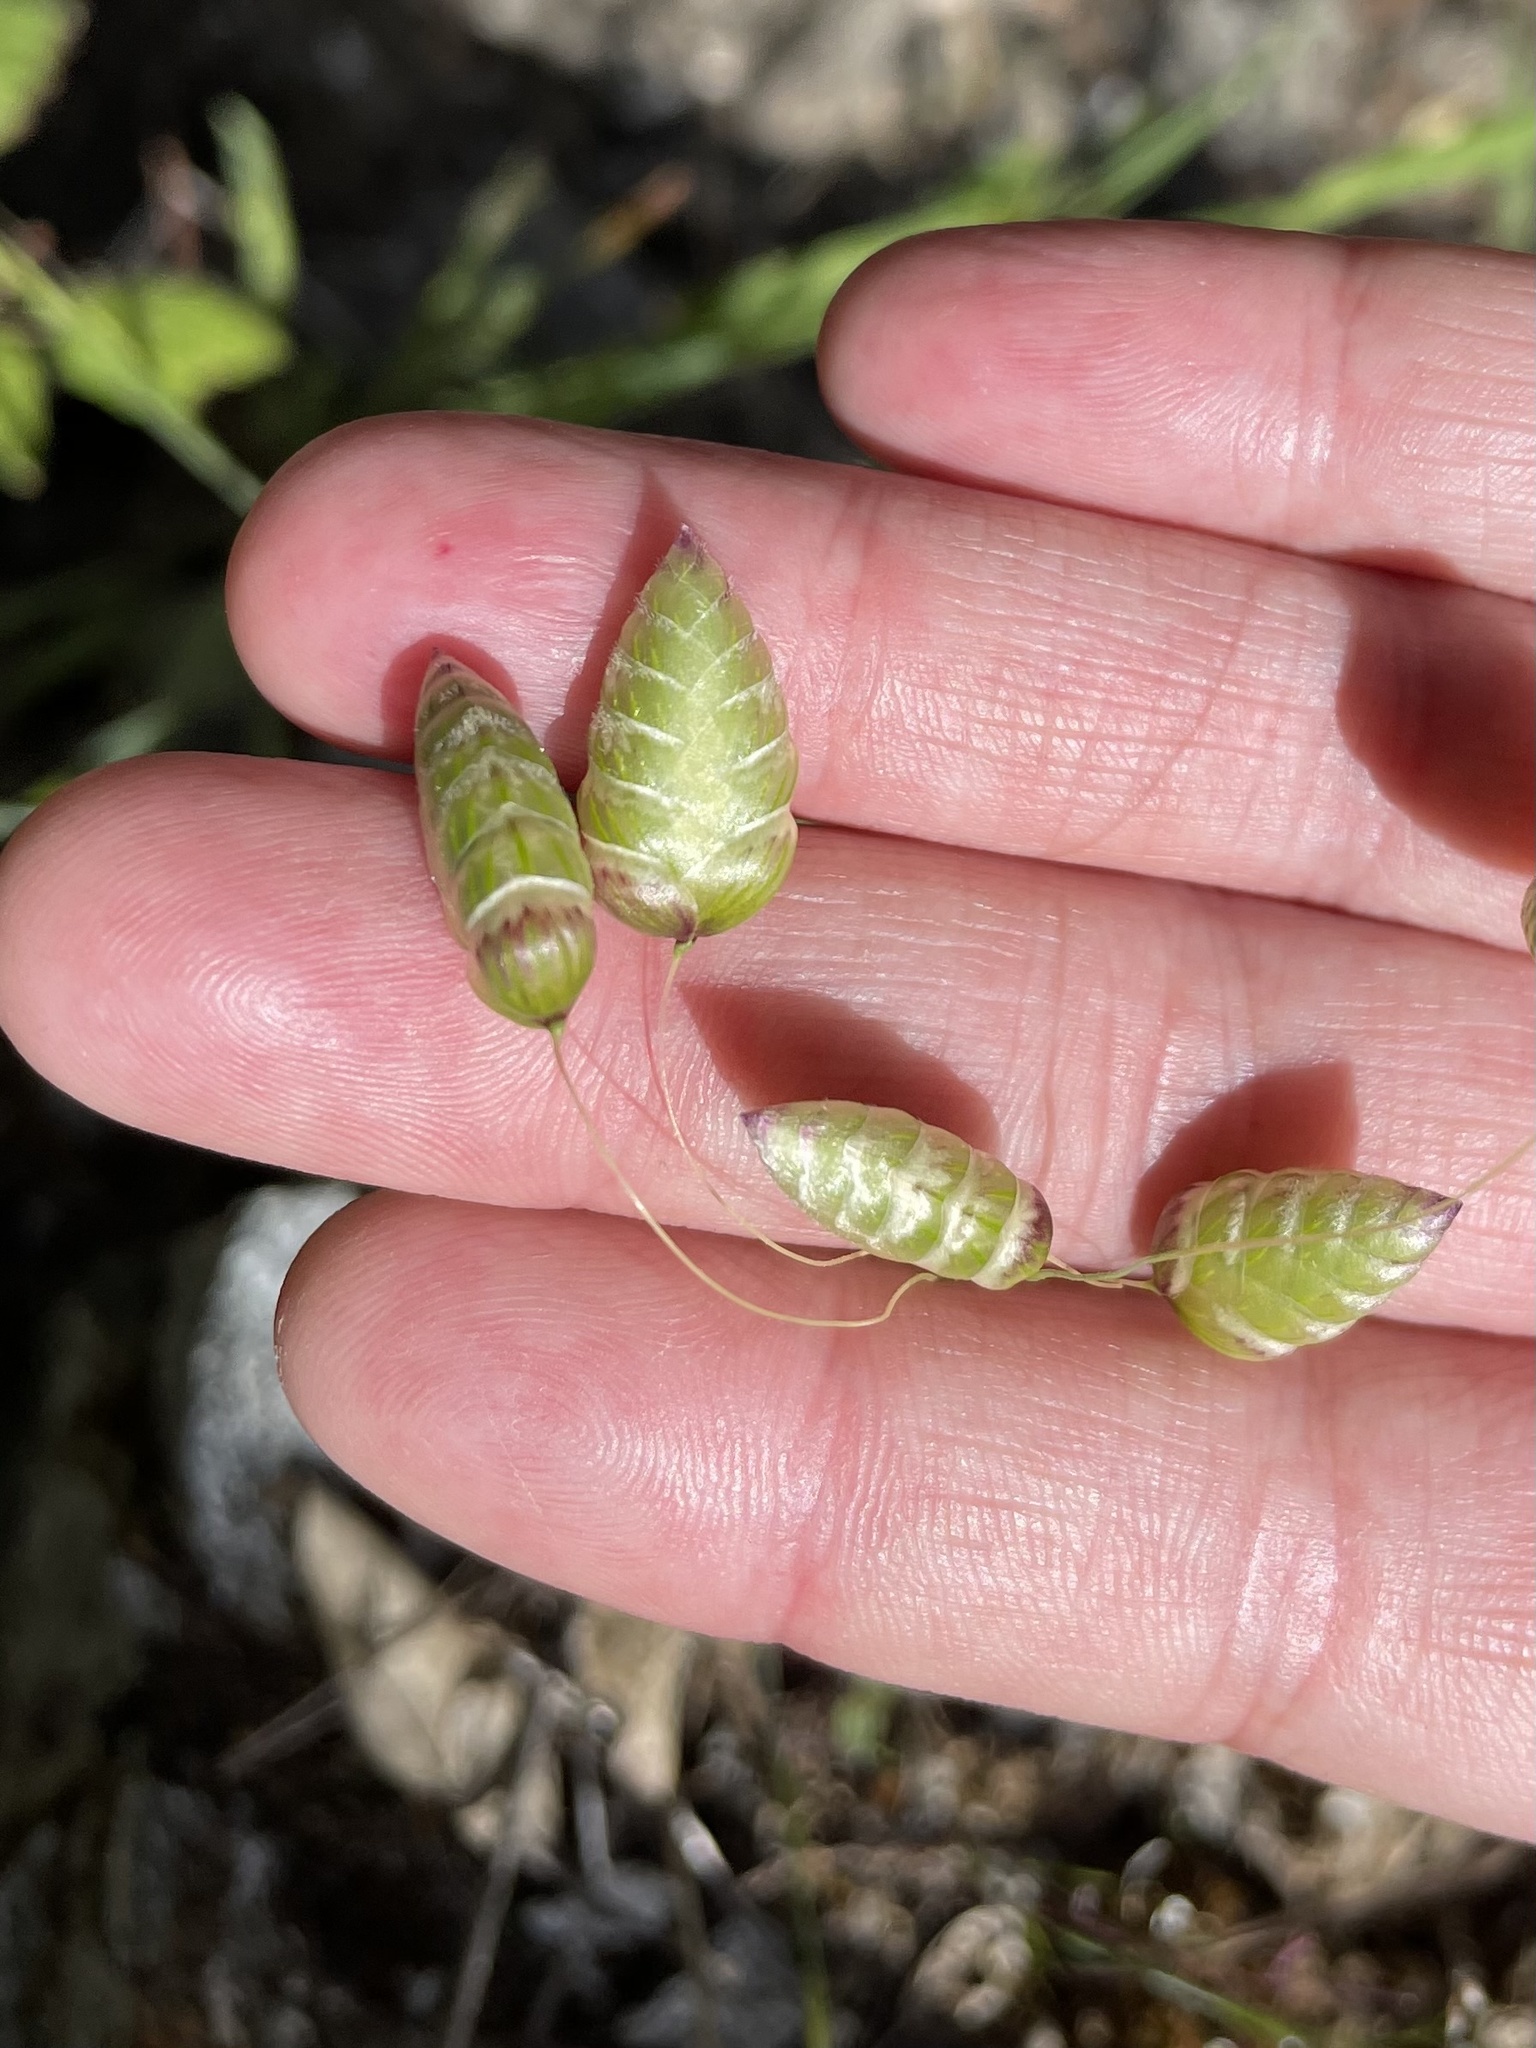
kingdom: Plantae
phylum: Tracheophyta
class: Liliopsida
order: Poales
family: Poaceae
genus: Briza
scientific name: Briza maxima
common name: Big quakinggrass
